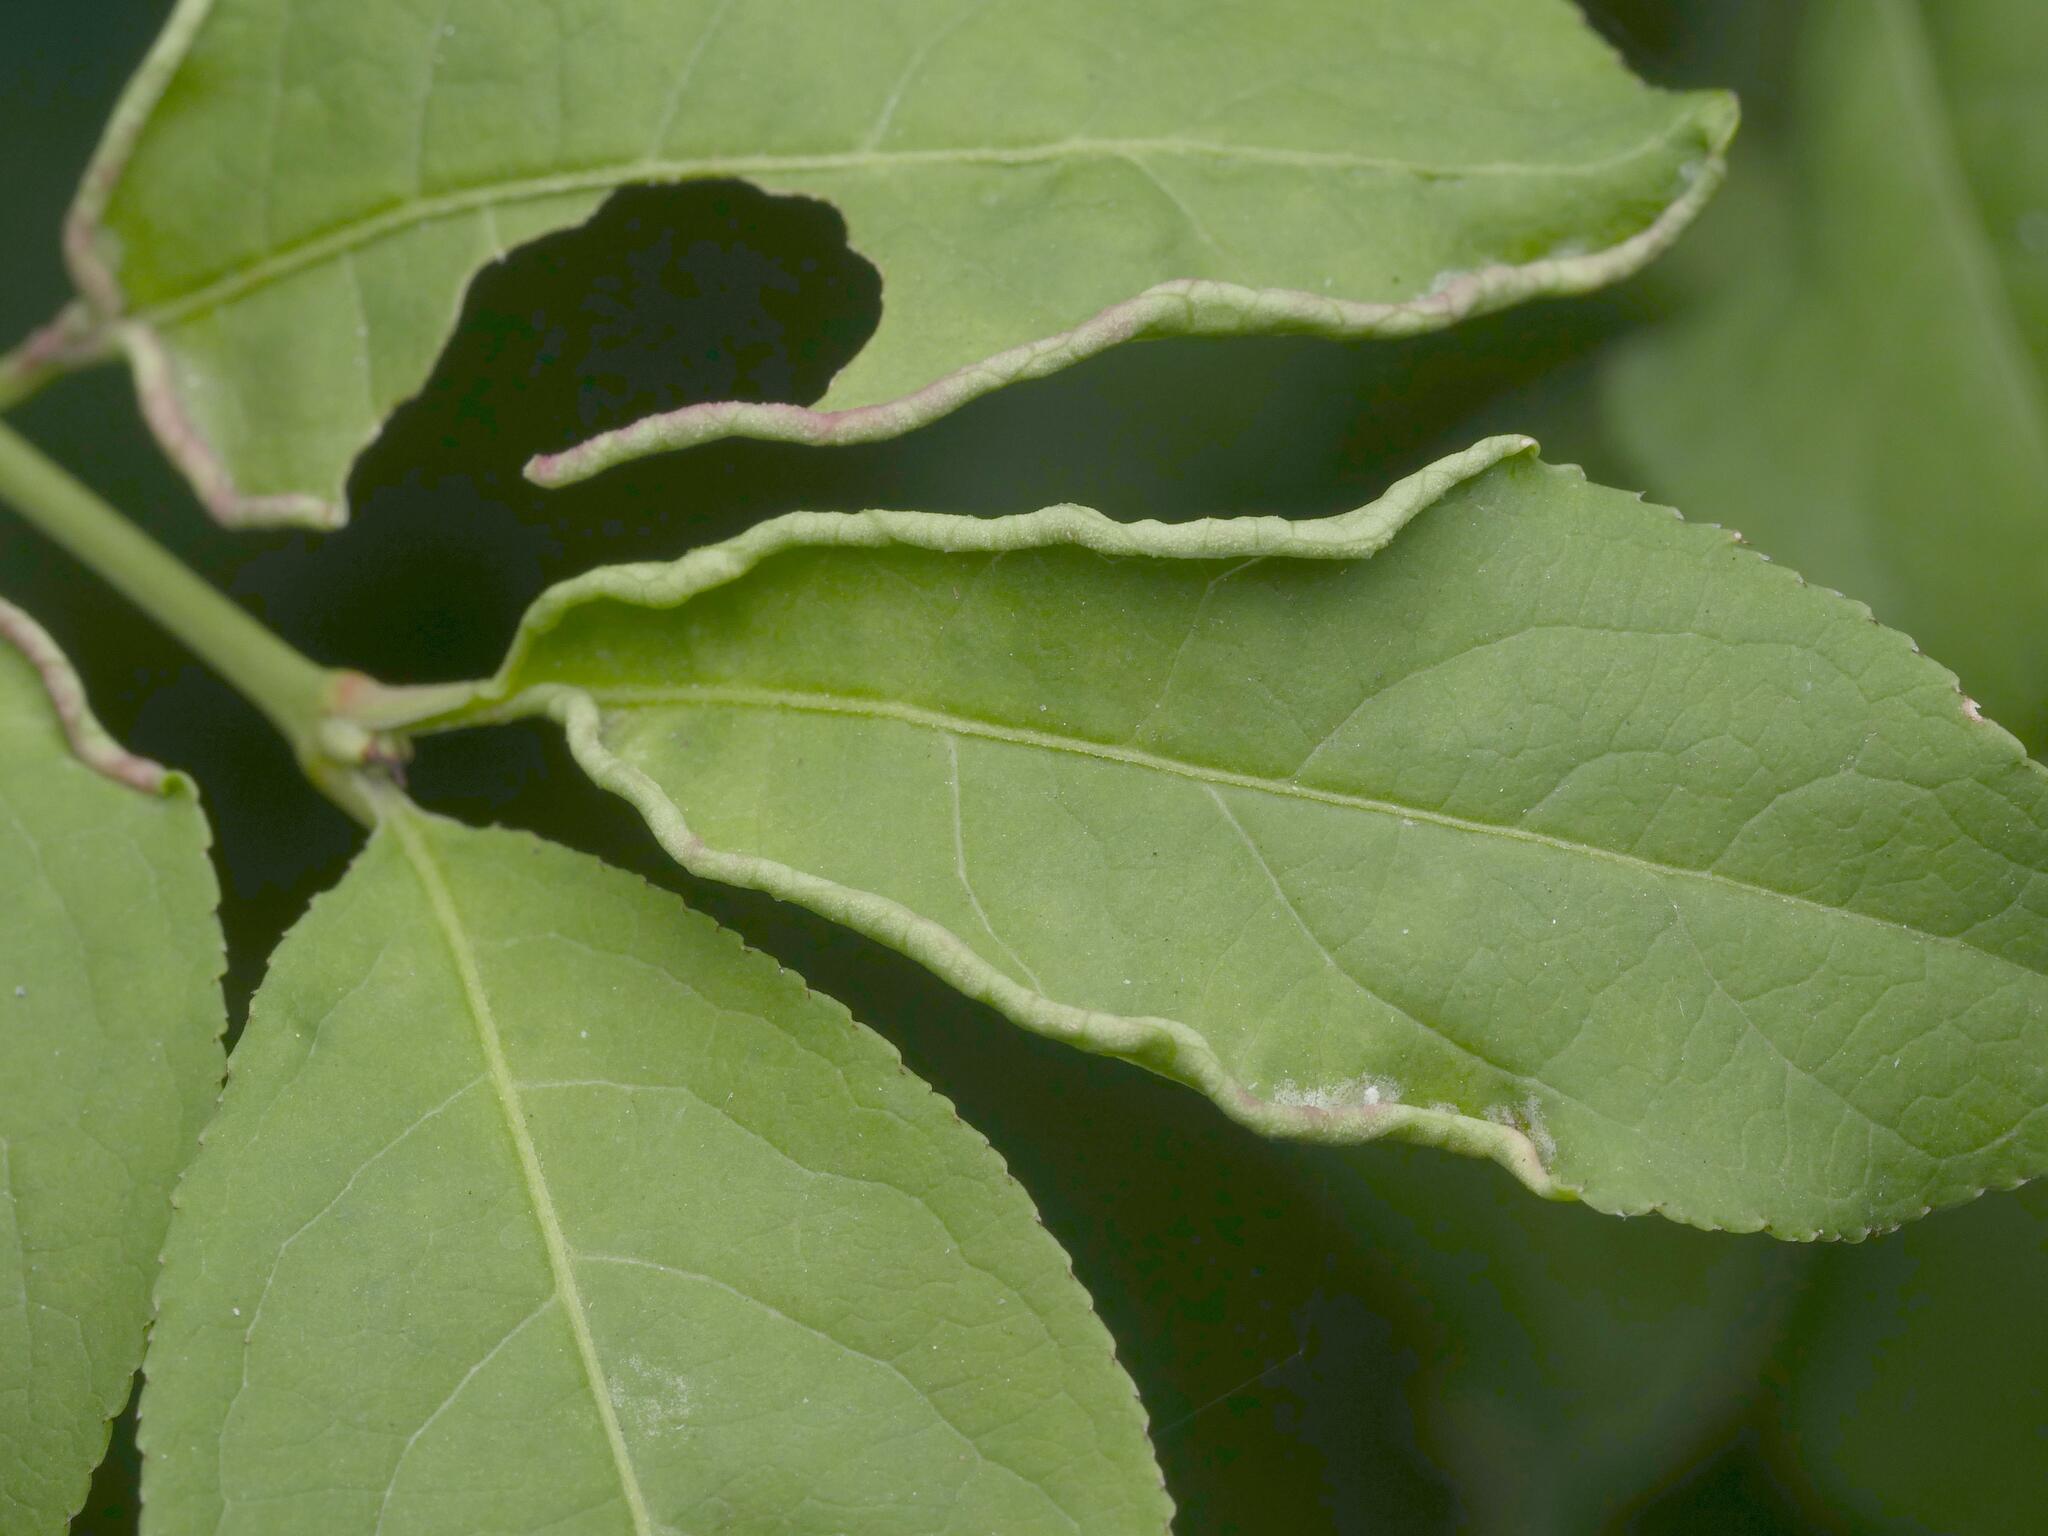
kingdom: Animalia
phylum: Arthropoda
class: Arachnida
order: Trombidiformes
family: Eriophyidae
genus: Stenacis
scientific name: Stenacis evonymi
